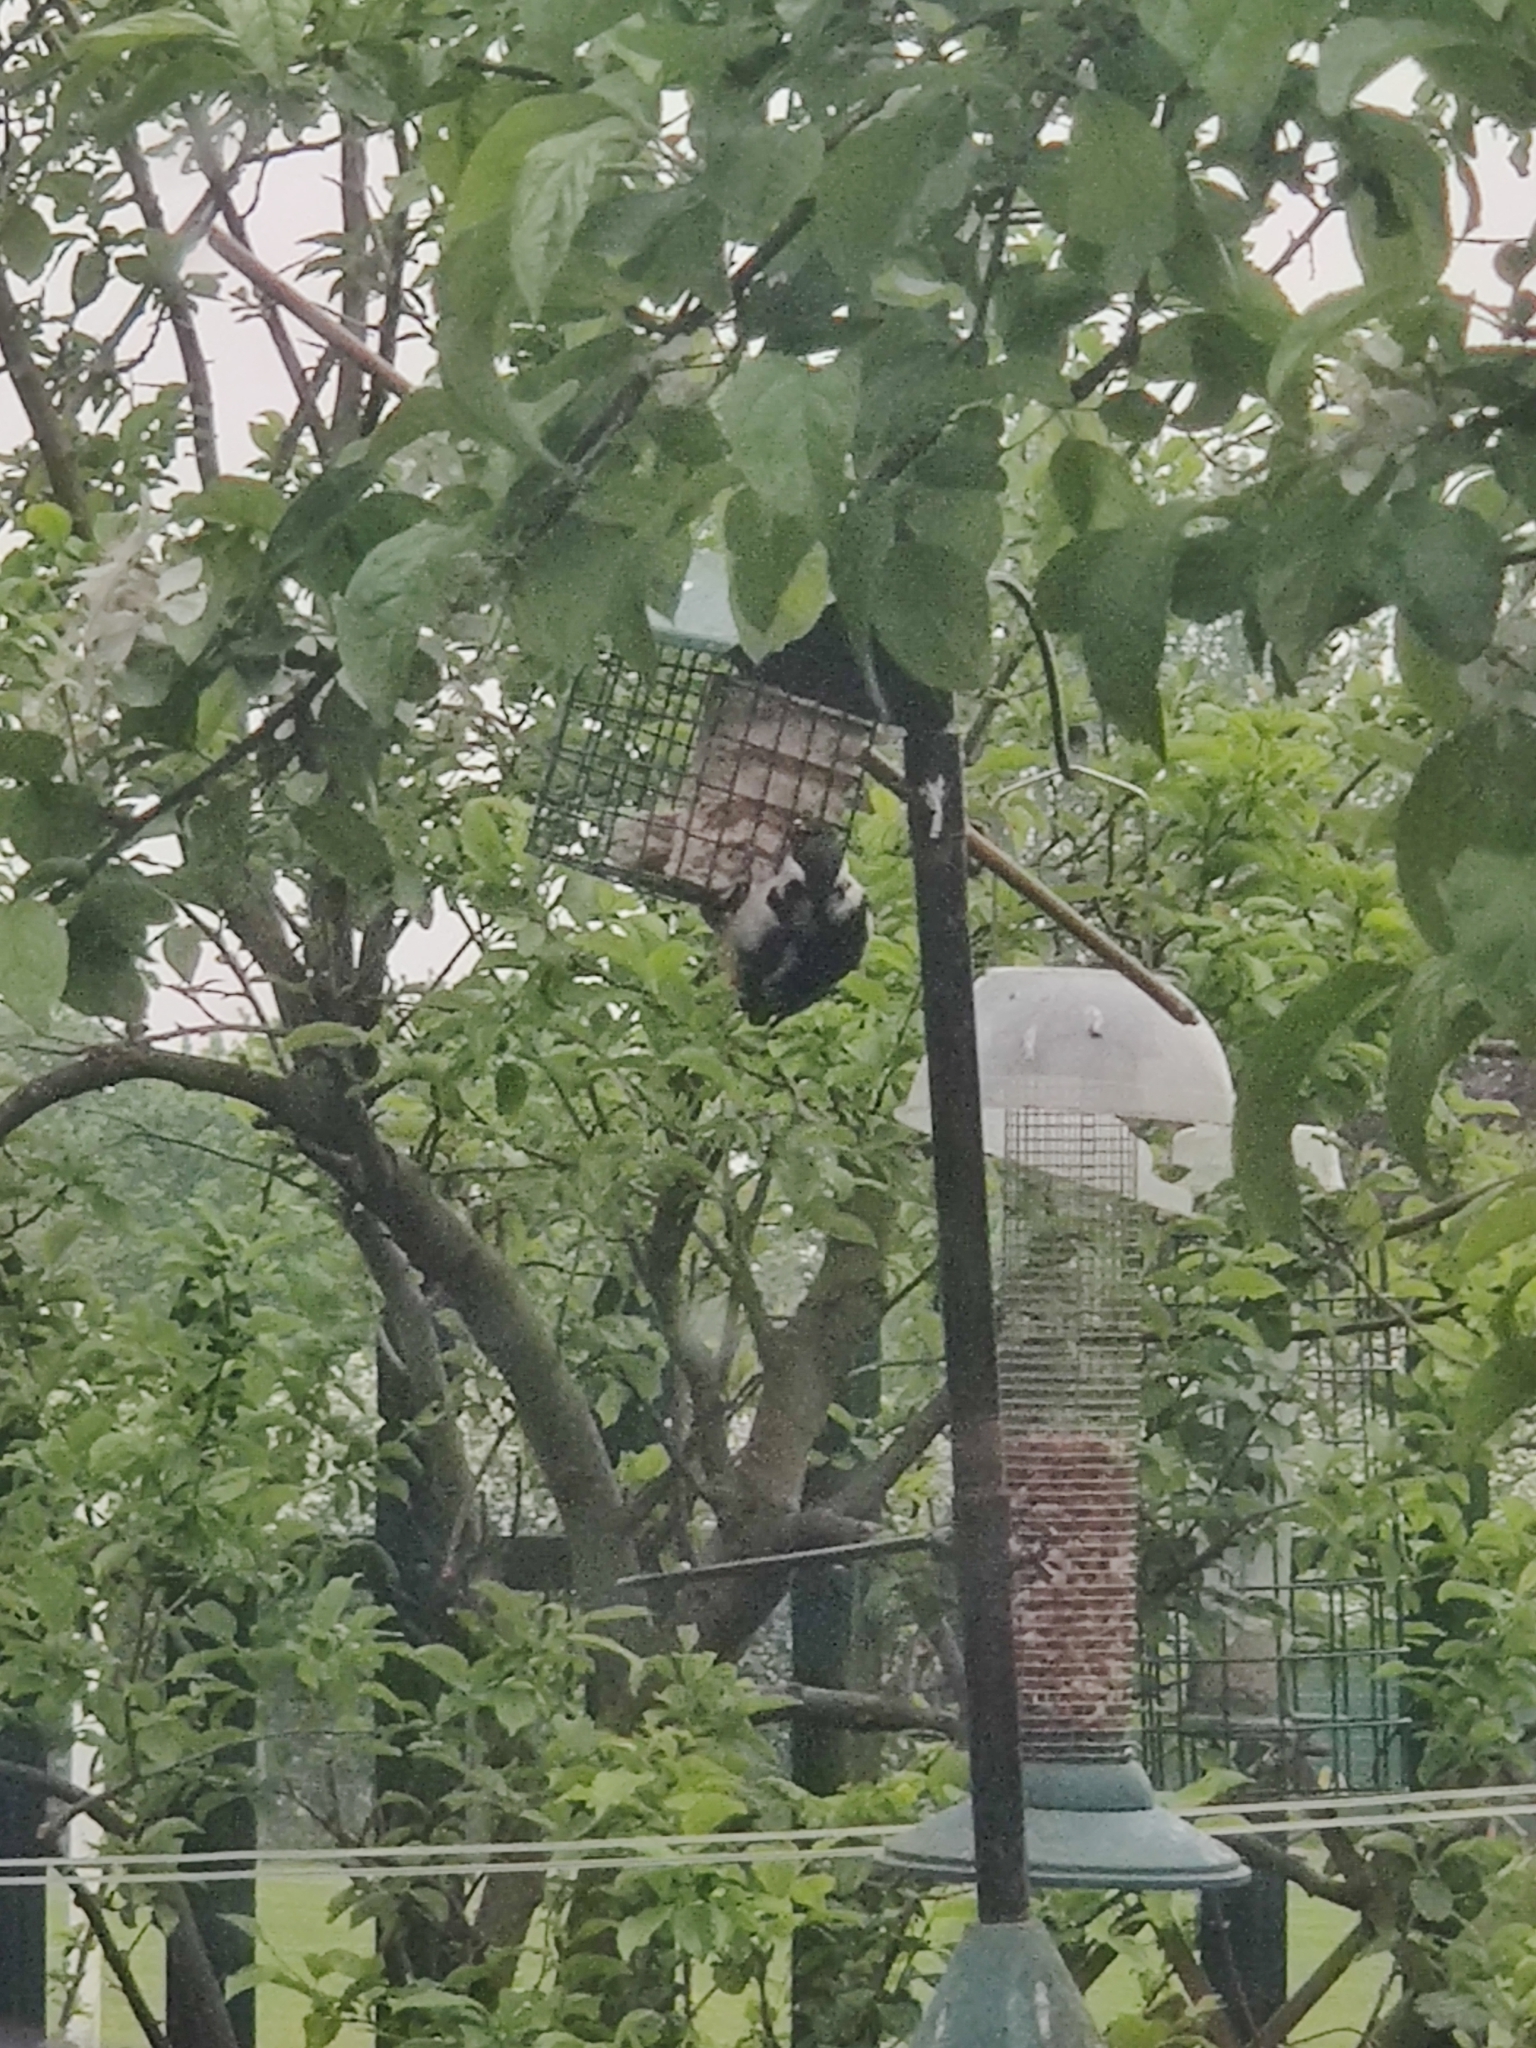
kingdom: Animalia
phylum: Chordata
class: Aves
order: Piciformes
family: Picidae
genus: Dendrocopos
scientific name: Dendrocopos major
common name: Great spotted woodpecker
